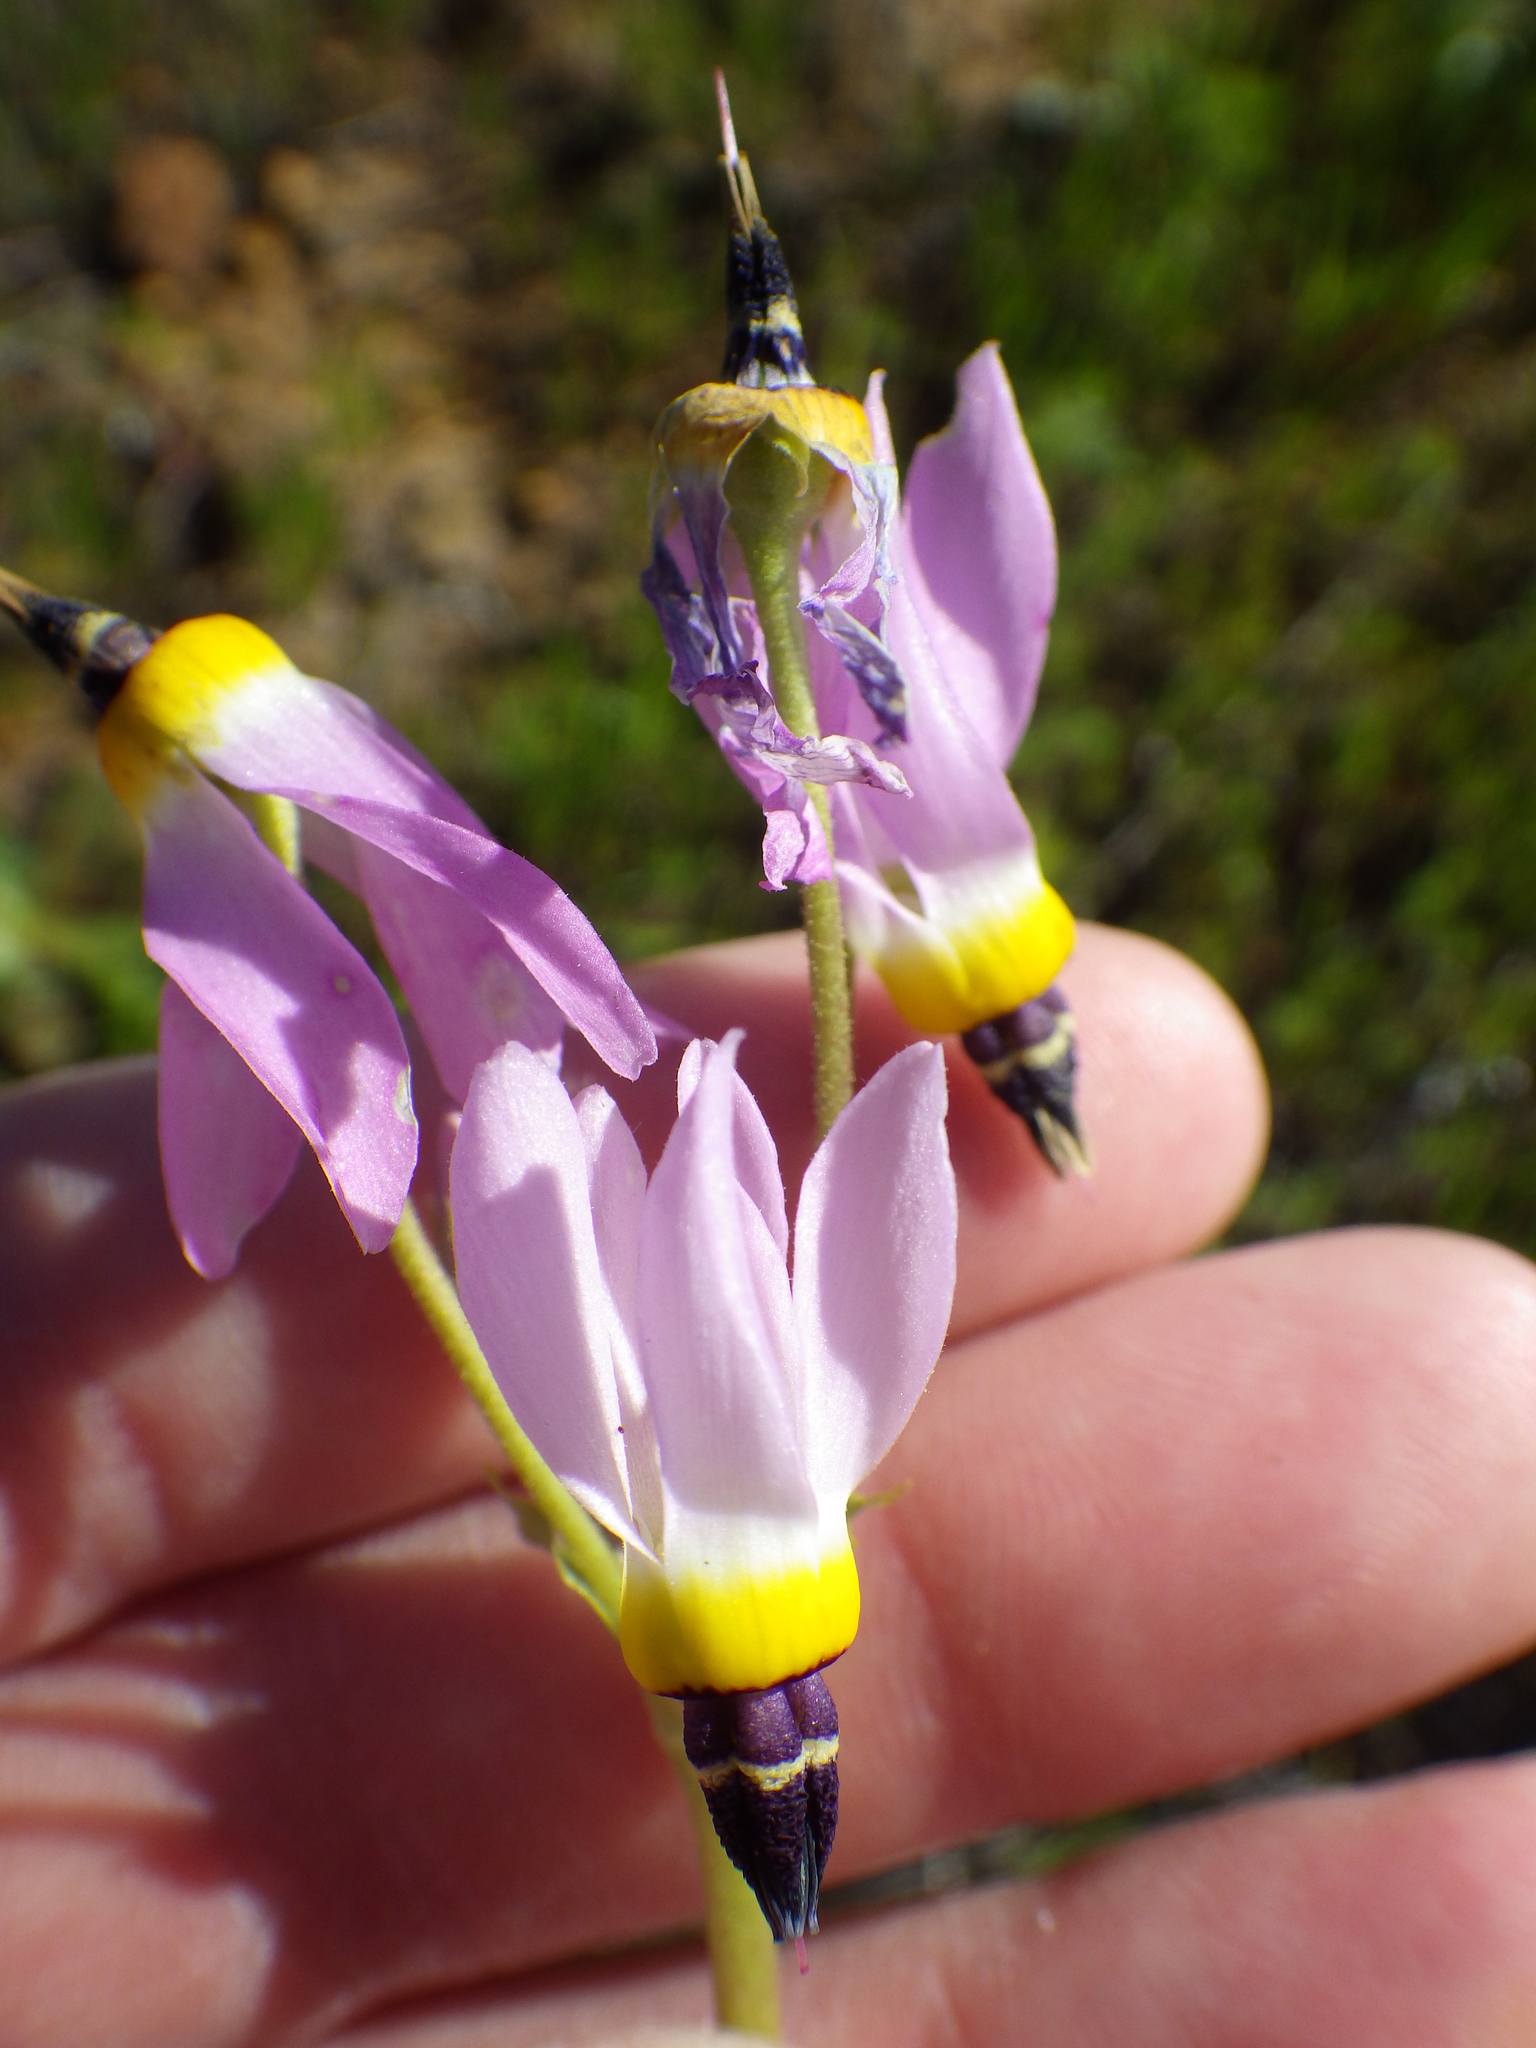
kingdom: Plantae
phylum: Tracheophyta
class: Magnoliopsida
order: Ericales
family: Primulaceae
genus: Dodecatheon
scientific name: Dodecatheon clevelandii
